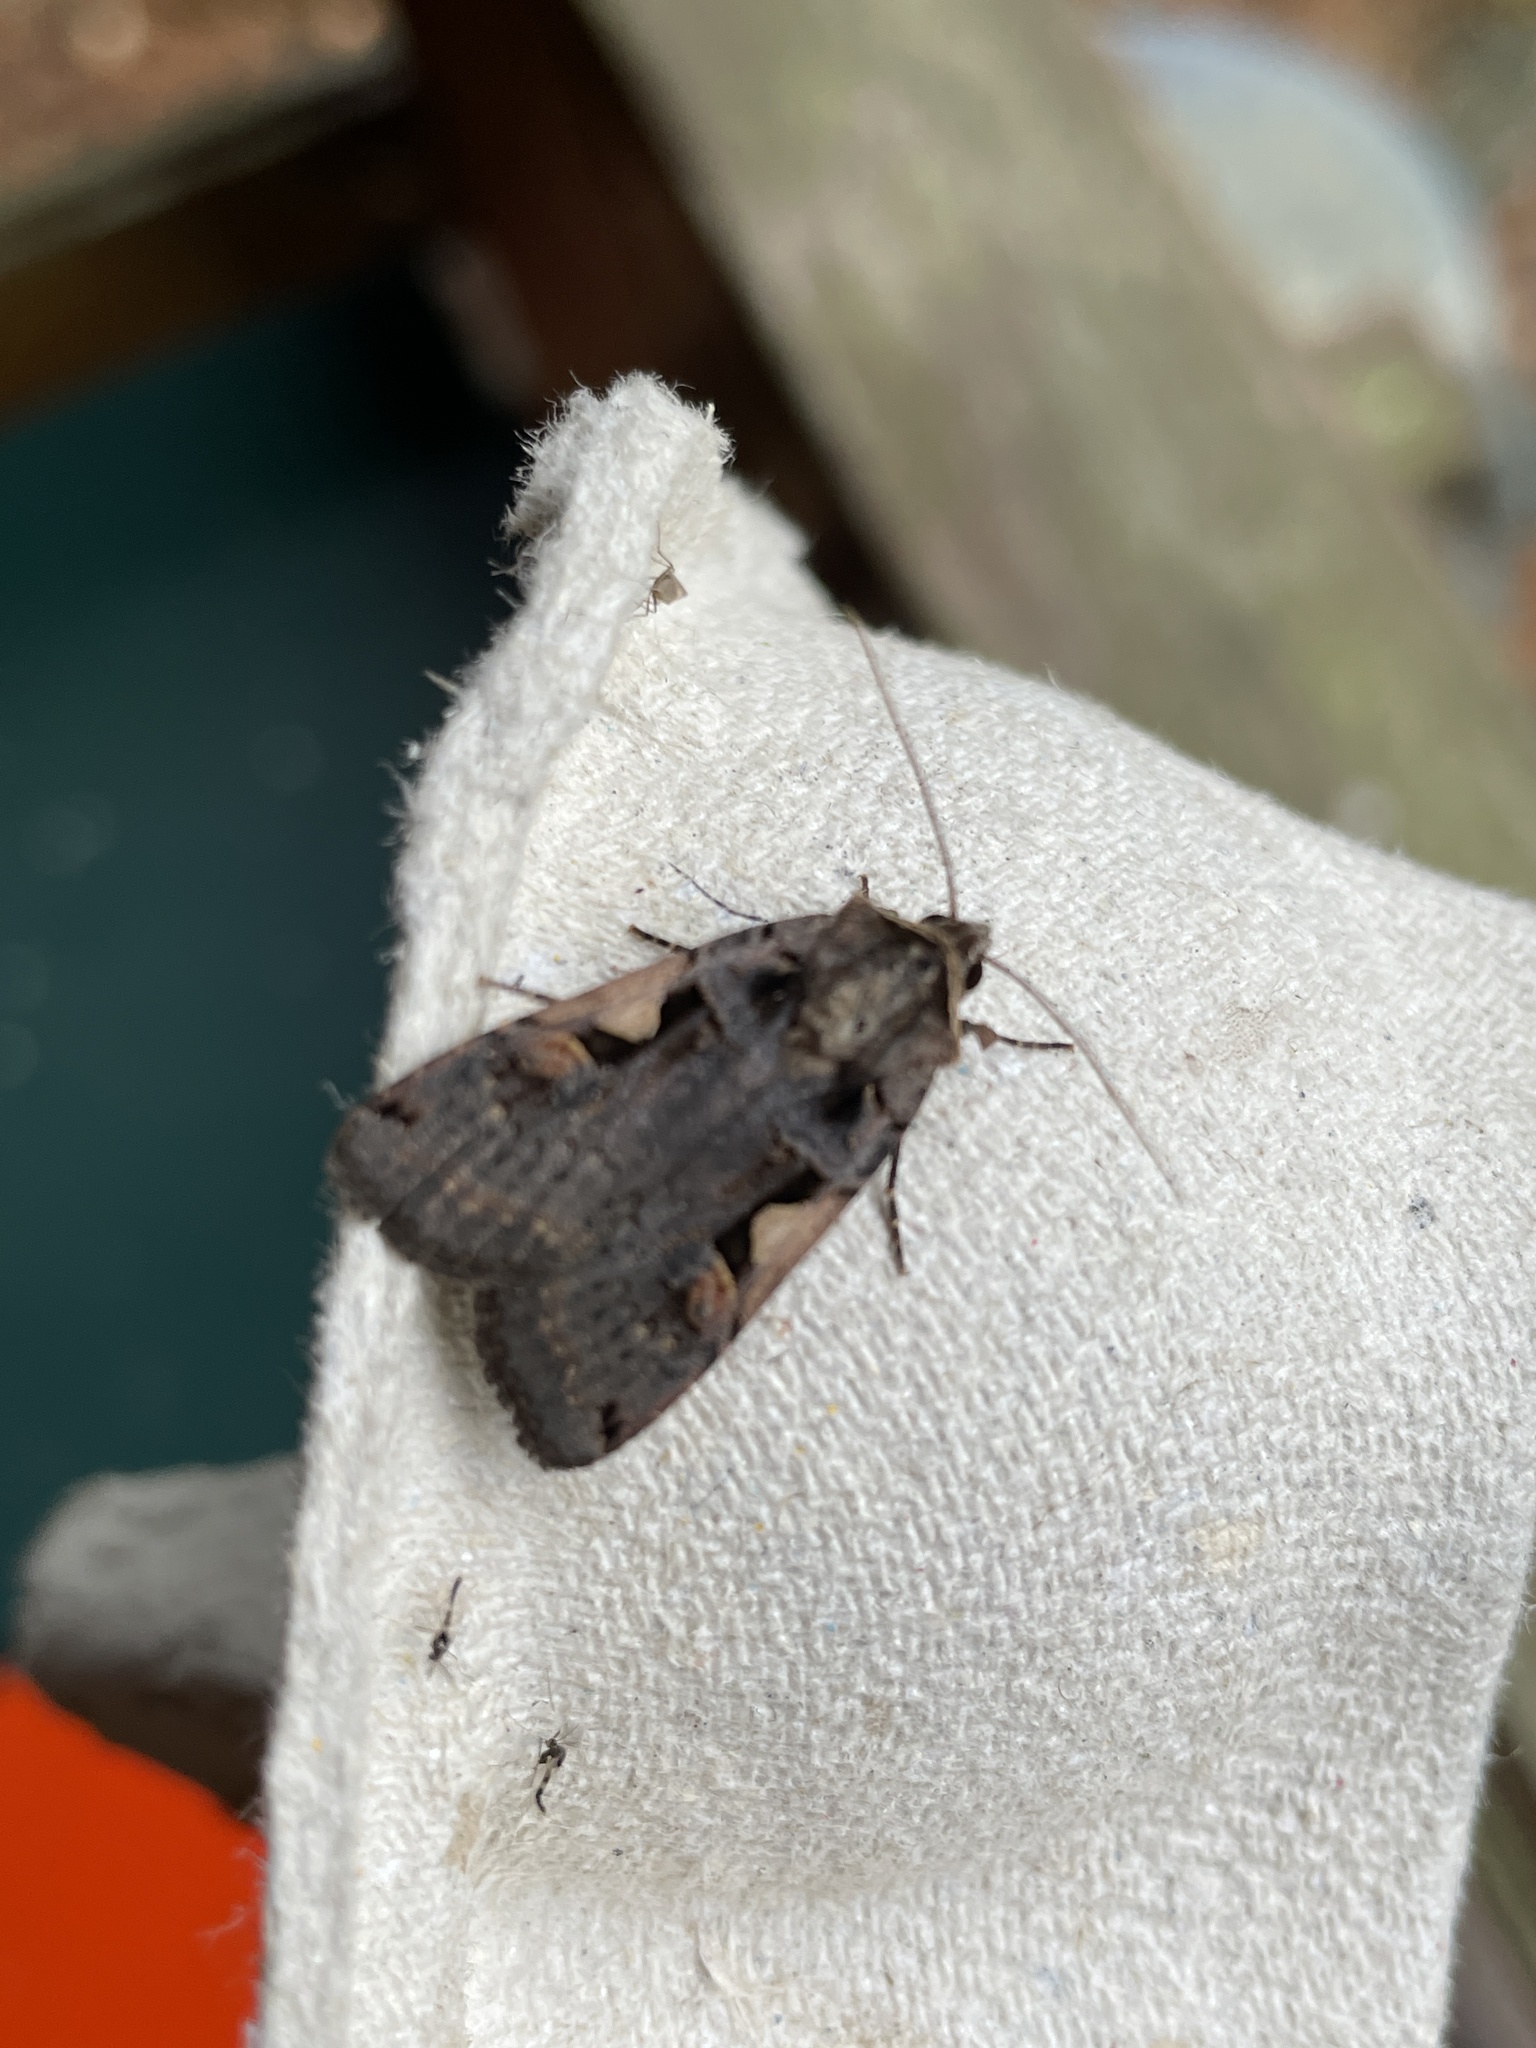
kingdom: Animalia
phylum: Arthropoda
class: Insecta
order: Lepidoptera
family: Noctuidae
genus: Xestia
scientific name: Xestia c-nigrum
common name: Setaceous hebrew character
